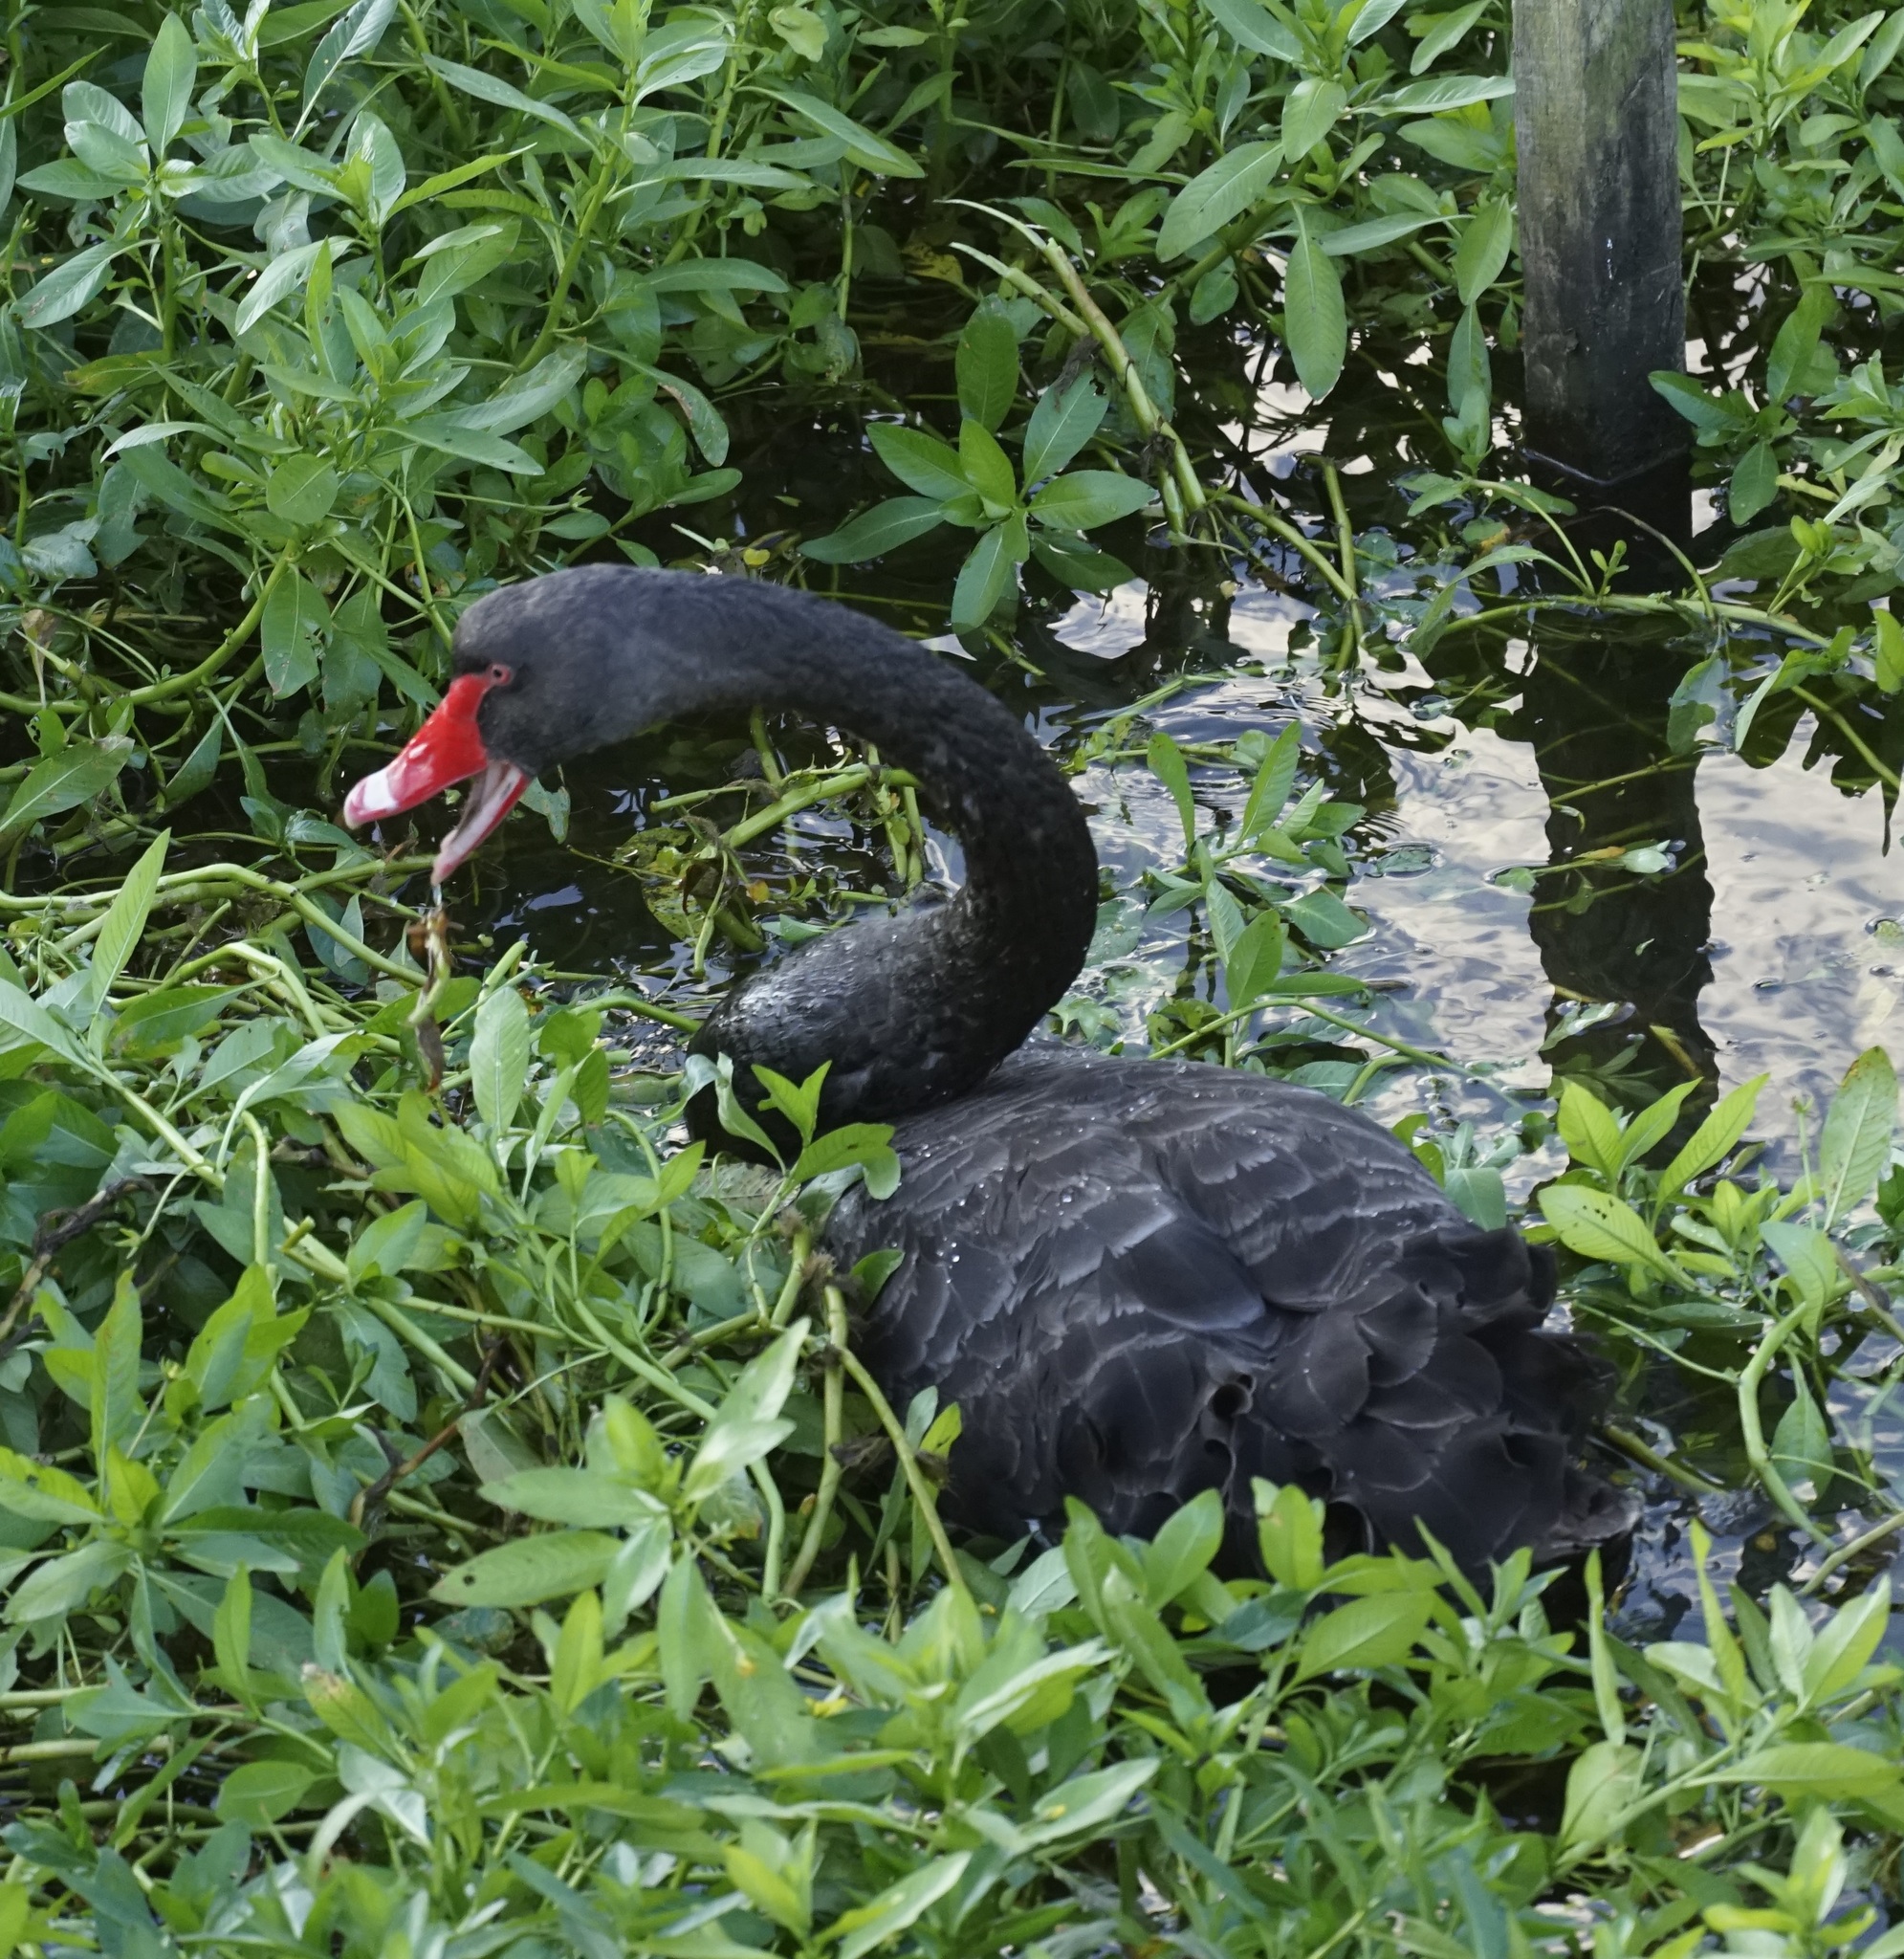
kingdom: Animalia
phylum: Chordata
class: Aves
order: Anseriformes
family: Anatidae
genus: Cygnus
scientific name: Cygnus atratus
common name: Black swan
